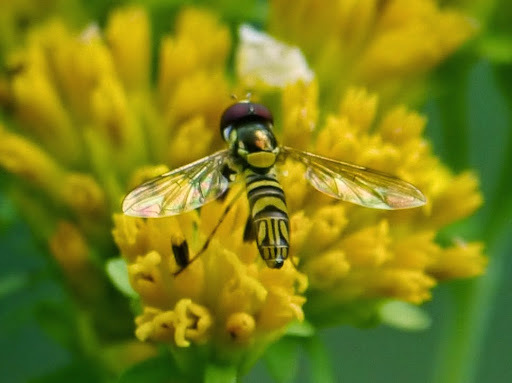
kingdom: Animalia
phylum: Arthropoda
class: Insecta
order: Diptera
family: Syrphidae
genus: Allograpta
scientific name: Allograpta obliqua
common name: Common oblique syrphid
